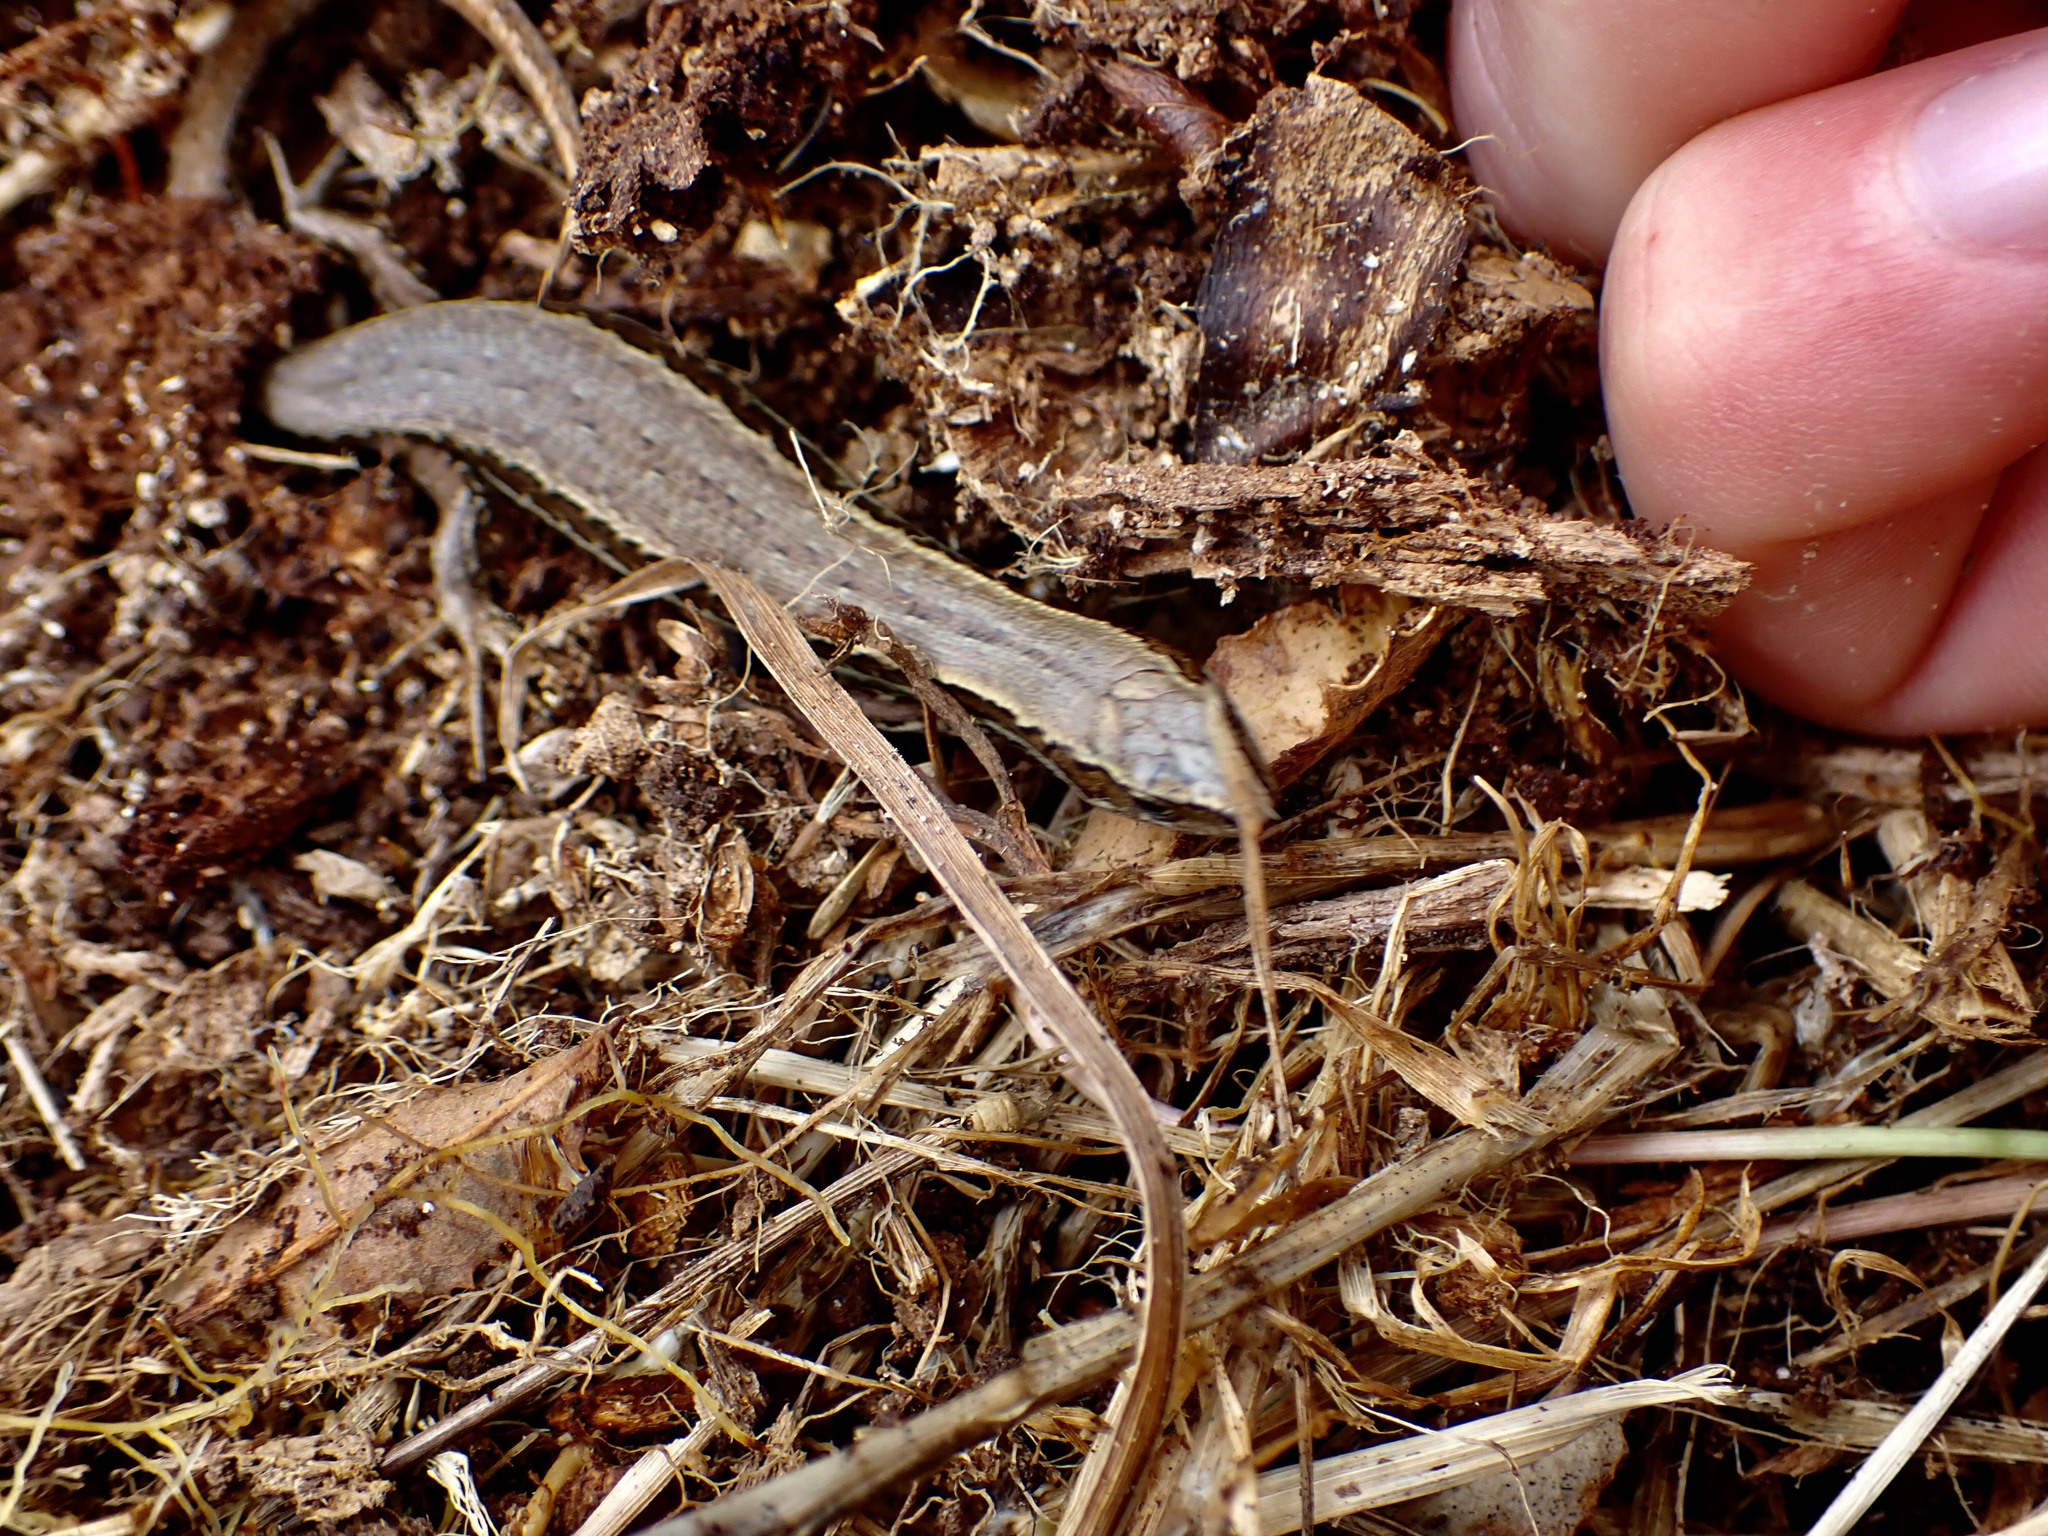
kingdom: Animalia
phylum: Chordata
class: Squamata
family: Scincidae
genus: Oligosoma
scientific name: Oligosoma polychroma
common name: Common new zealand skink
